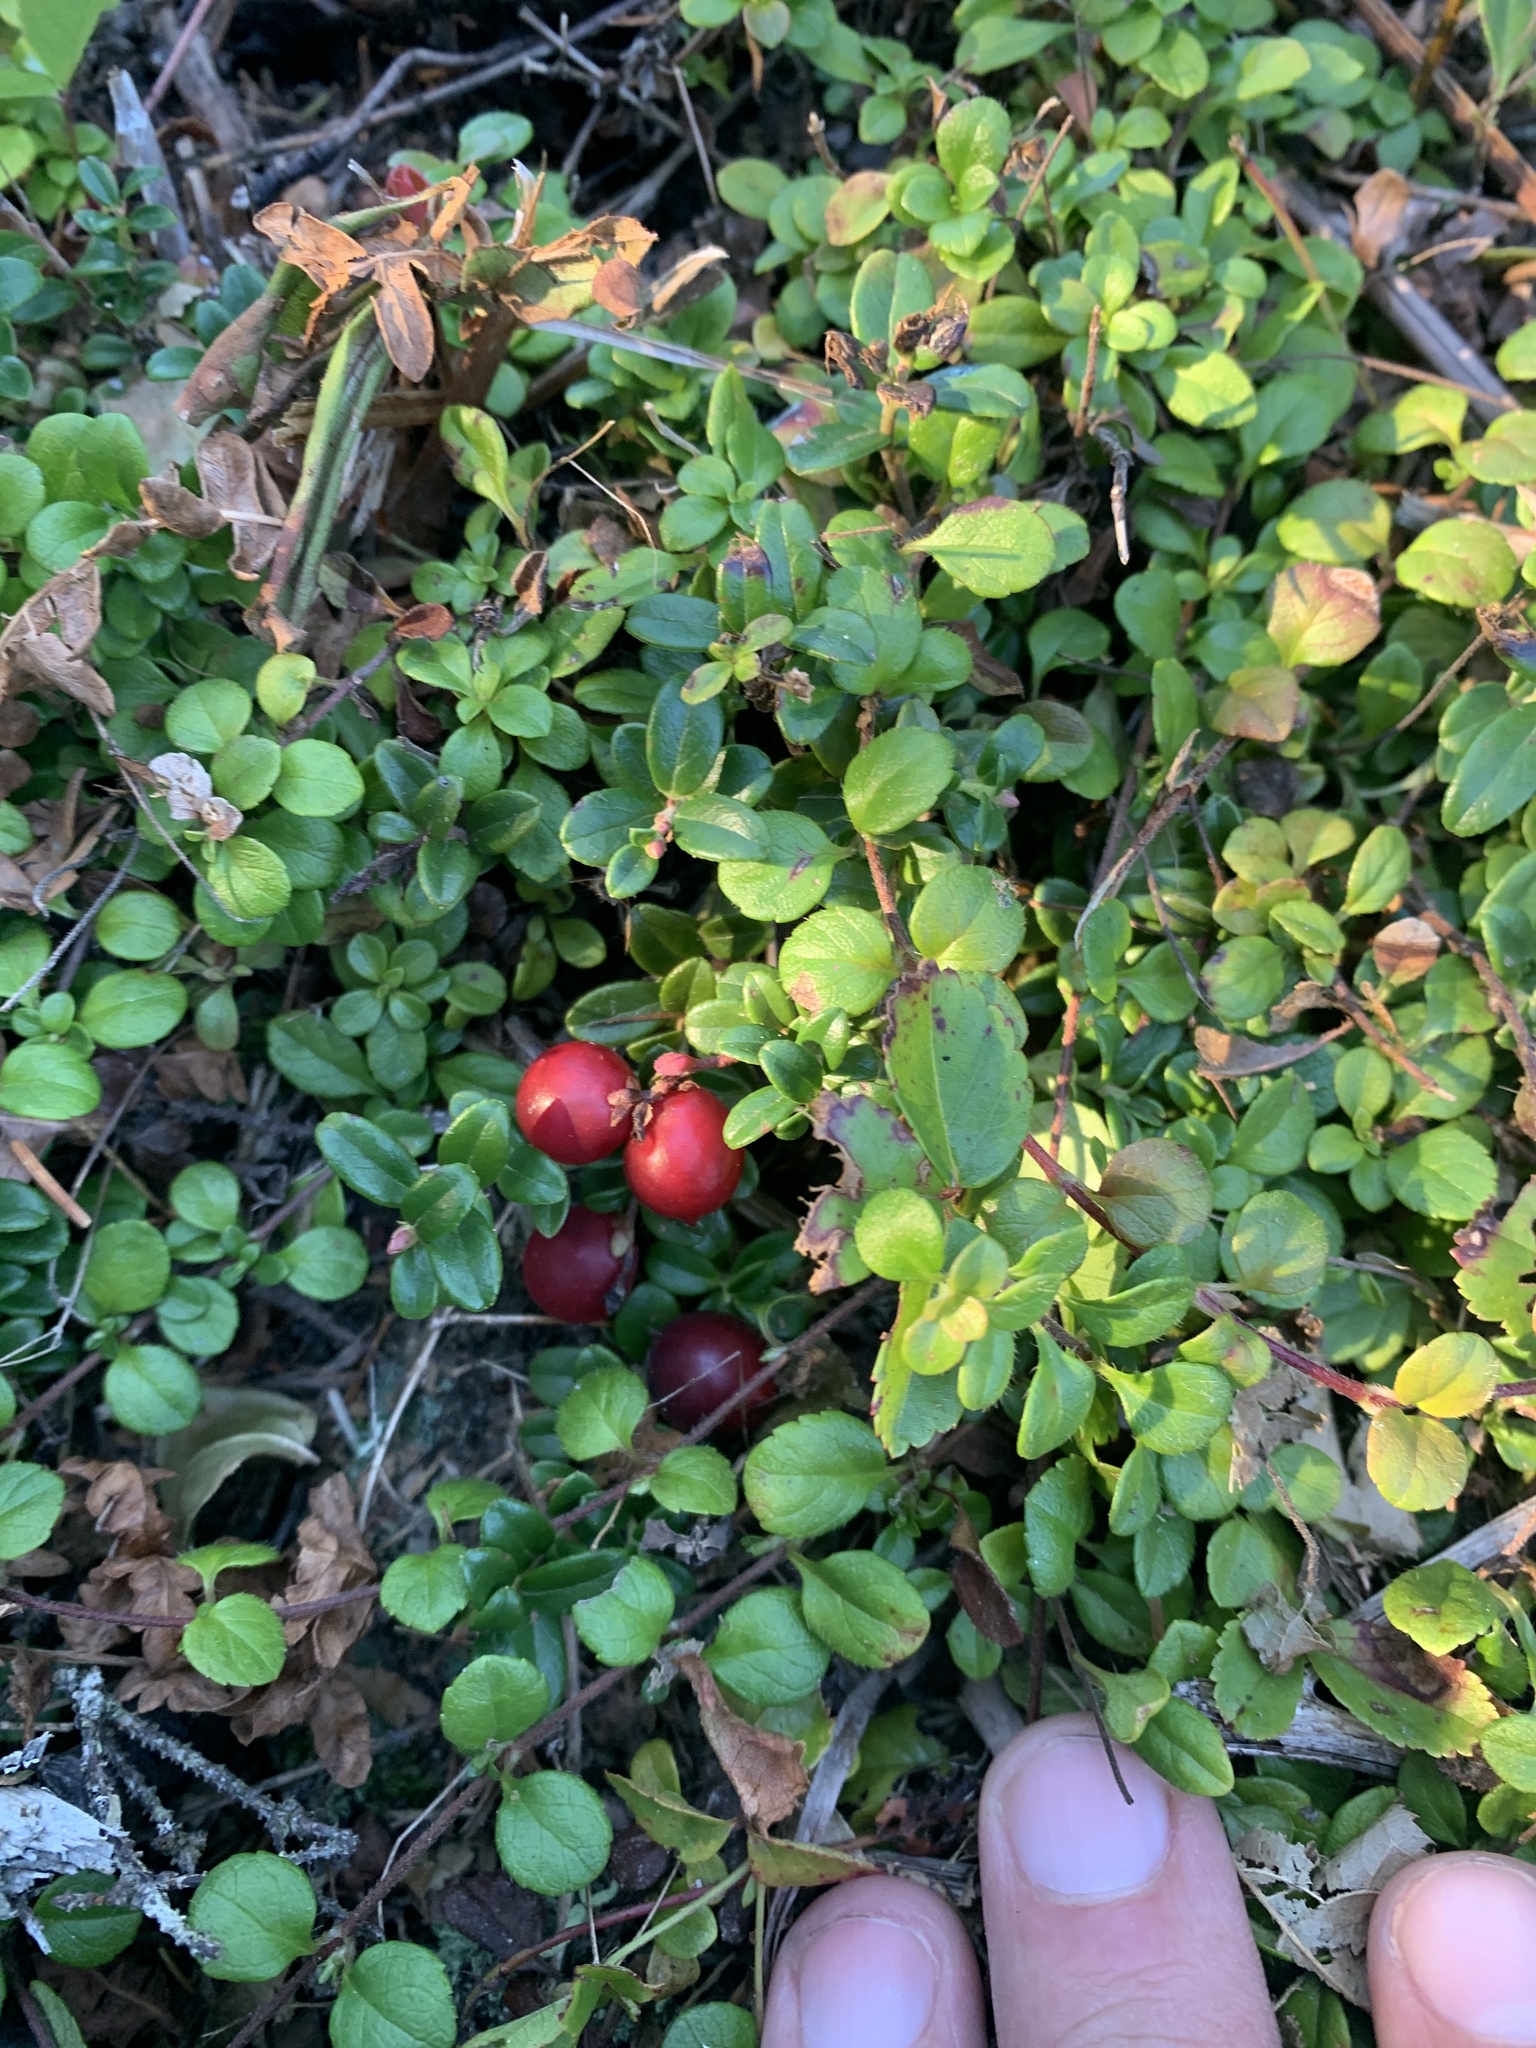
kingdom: Plantae
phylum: Tracheophyta
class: Magnoliopsida
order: Ericales
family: Ericaceae
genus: Vaccinium
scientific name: Vaccinium vitis-idaea
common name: Cowberry
